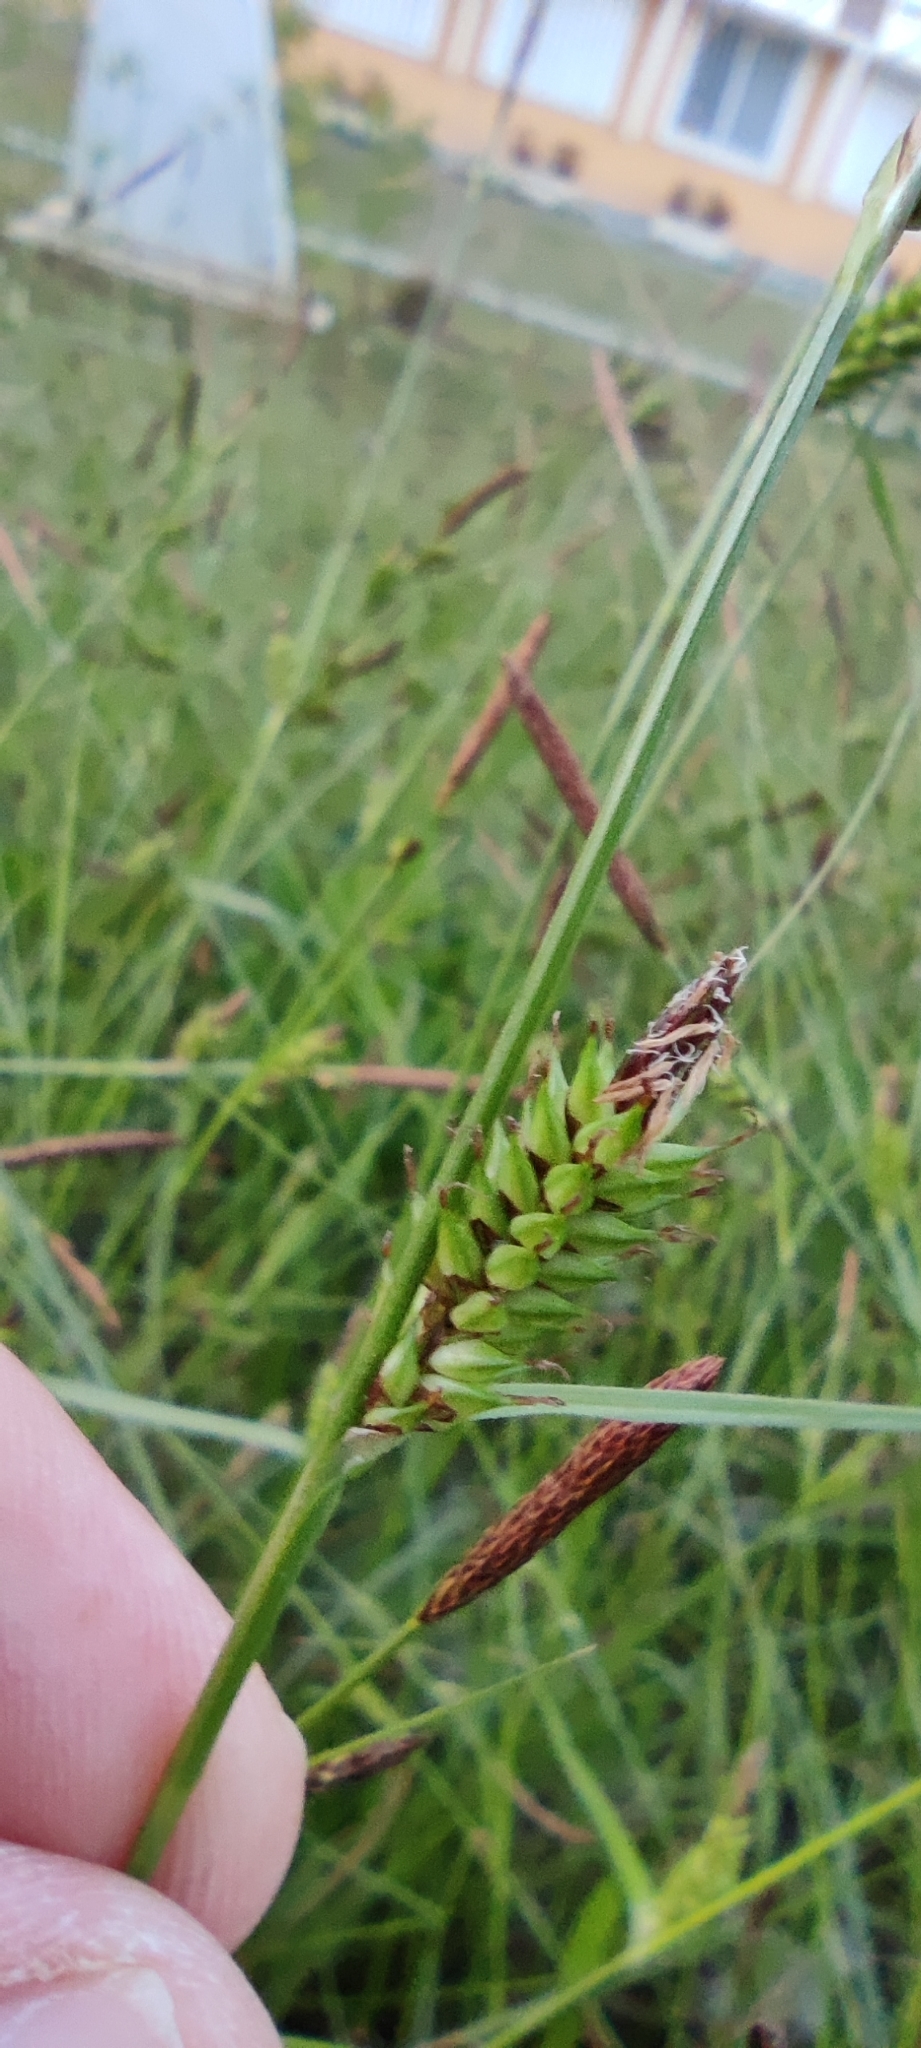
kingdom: Plantae
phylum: Tracheophyta
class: Liliopsida
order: Poales
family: Cyperaceae
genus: Carex
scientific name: Carex distans
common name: Distant sedge
